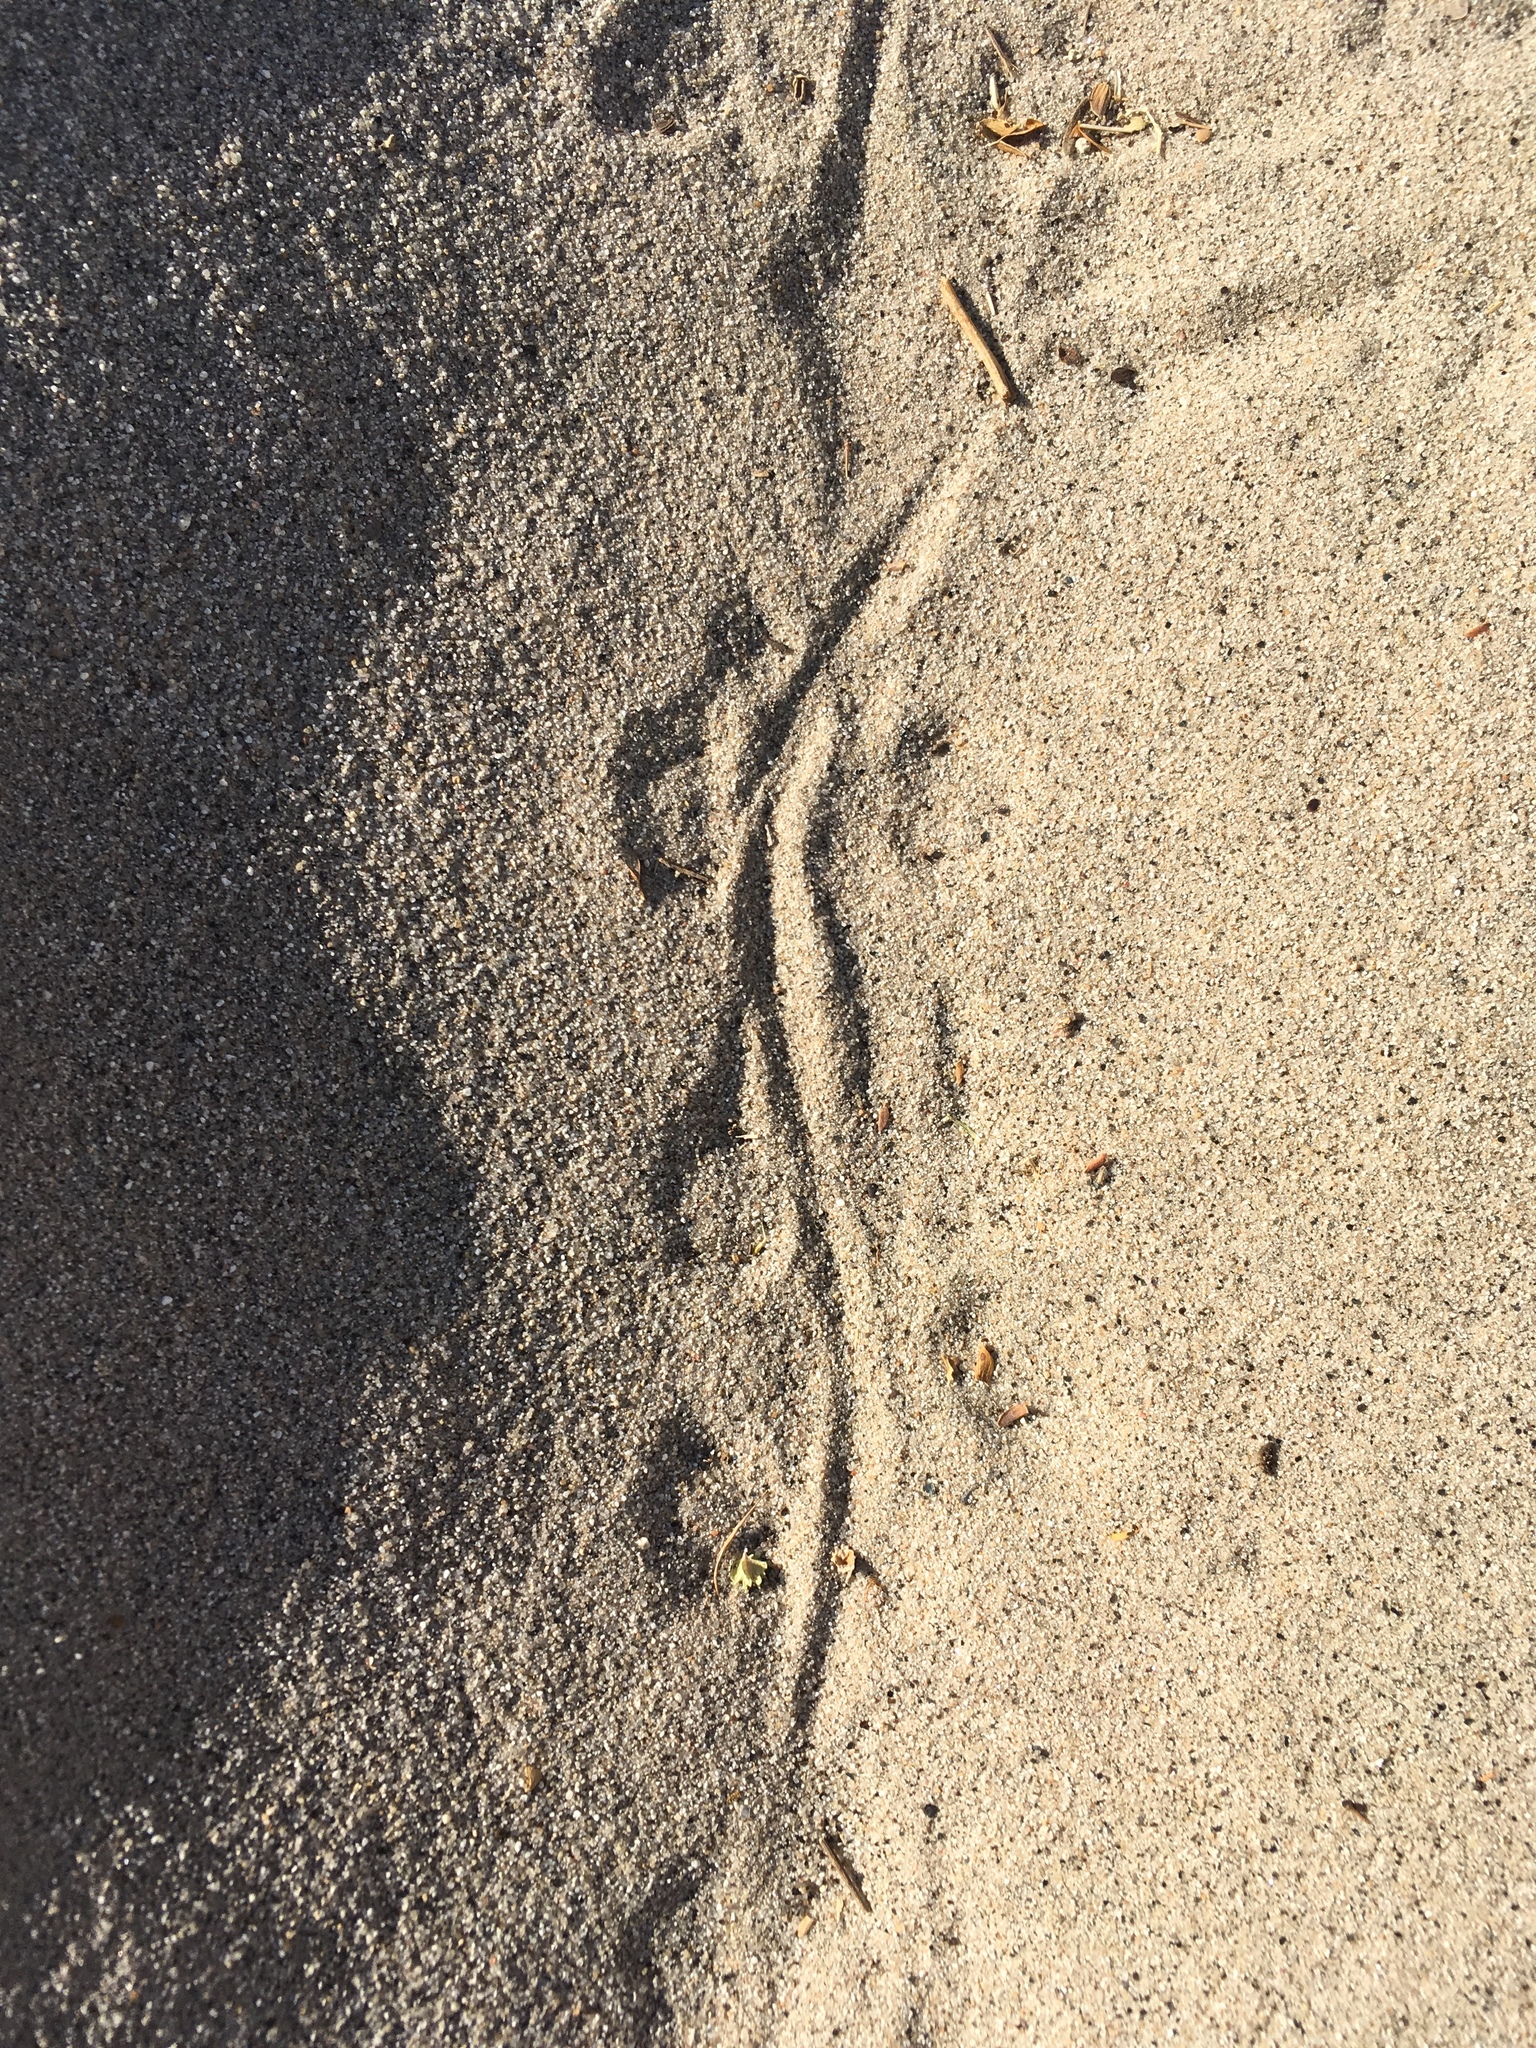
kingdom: Animalia
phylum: Chordata
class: Mammalia
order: Rodentia
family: Heteromyidae
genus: Dipodomys
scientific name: Dipodomys deserti
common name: Desert kangaroo rat
